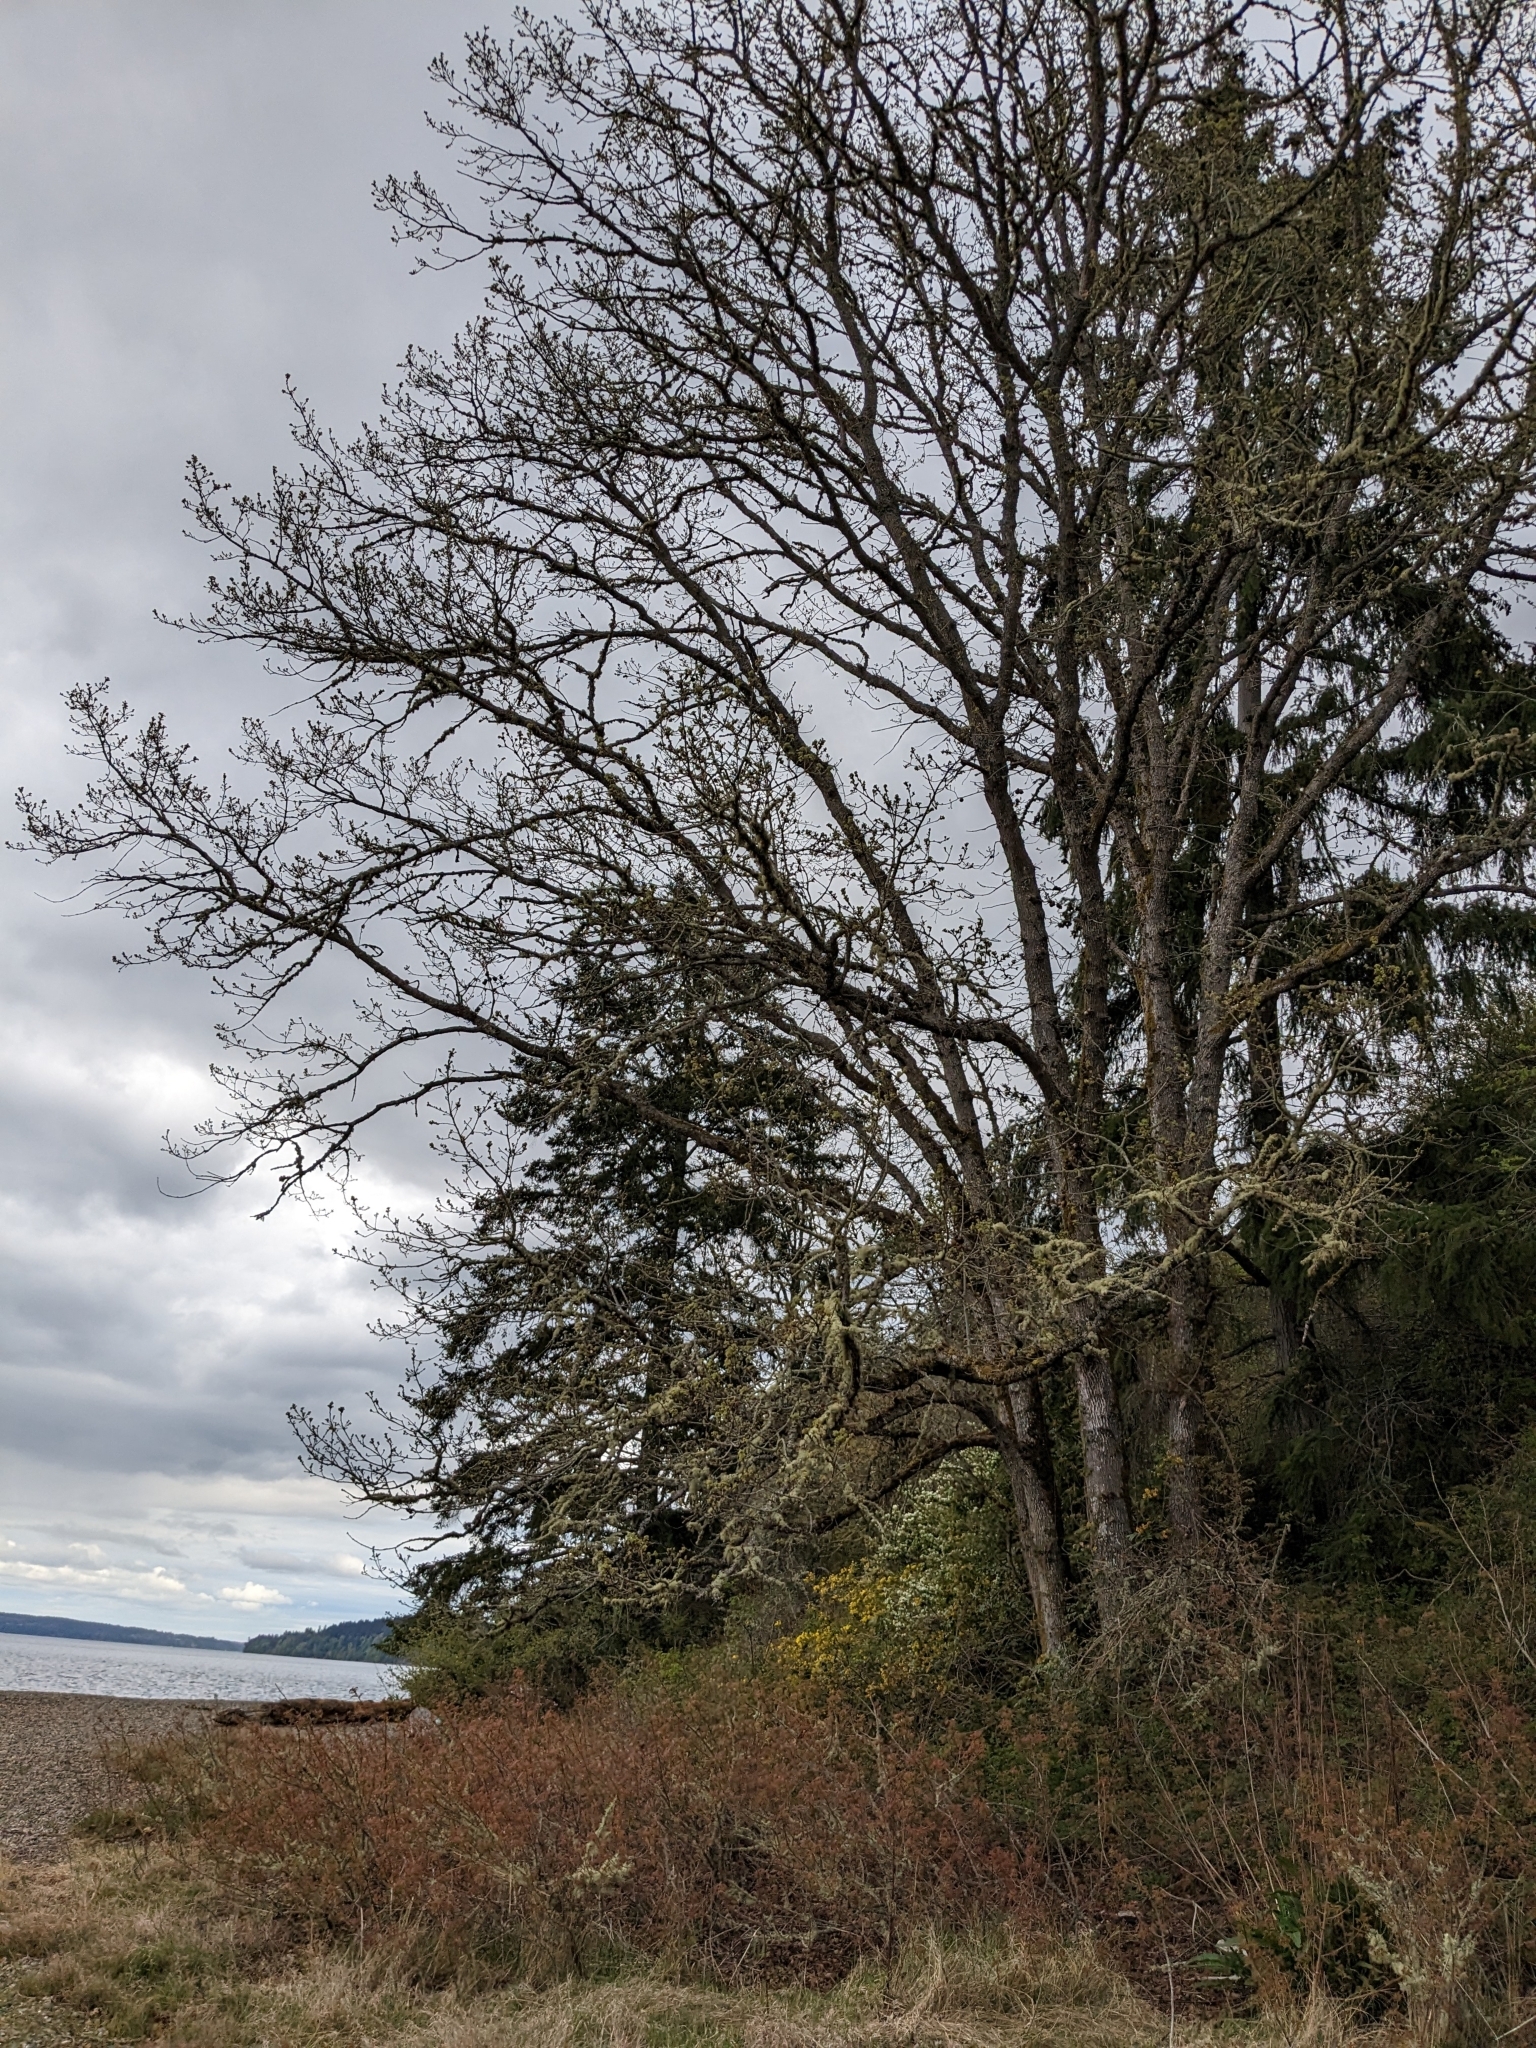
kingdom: Plantae
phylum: Tracheophyta
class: Magnoliopsida
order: Fagales
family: Fagaceae
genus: Quercus
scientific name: Quercus garryana
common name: Garry oak
